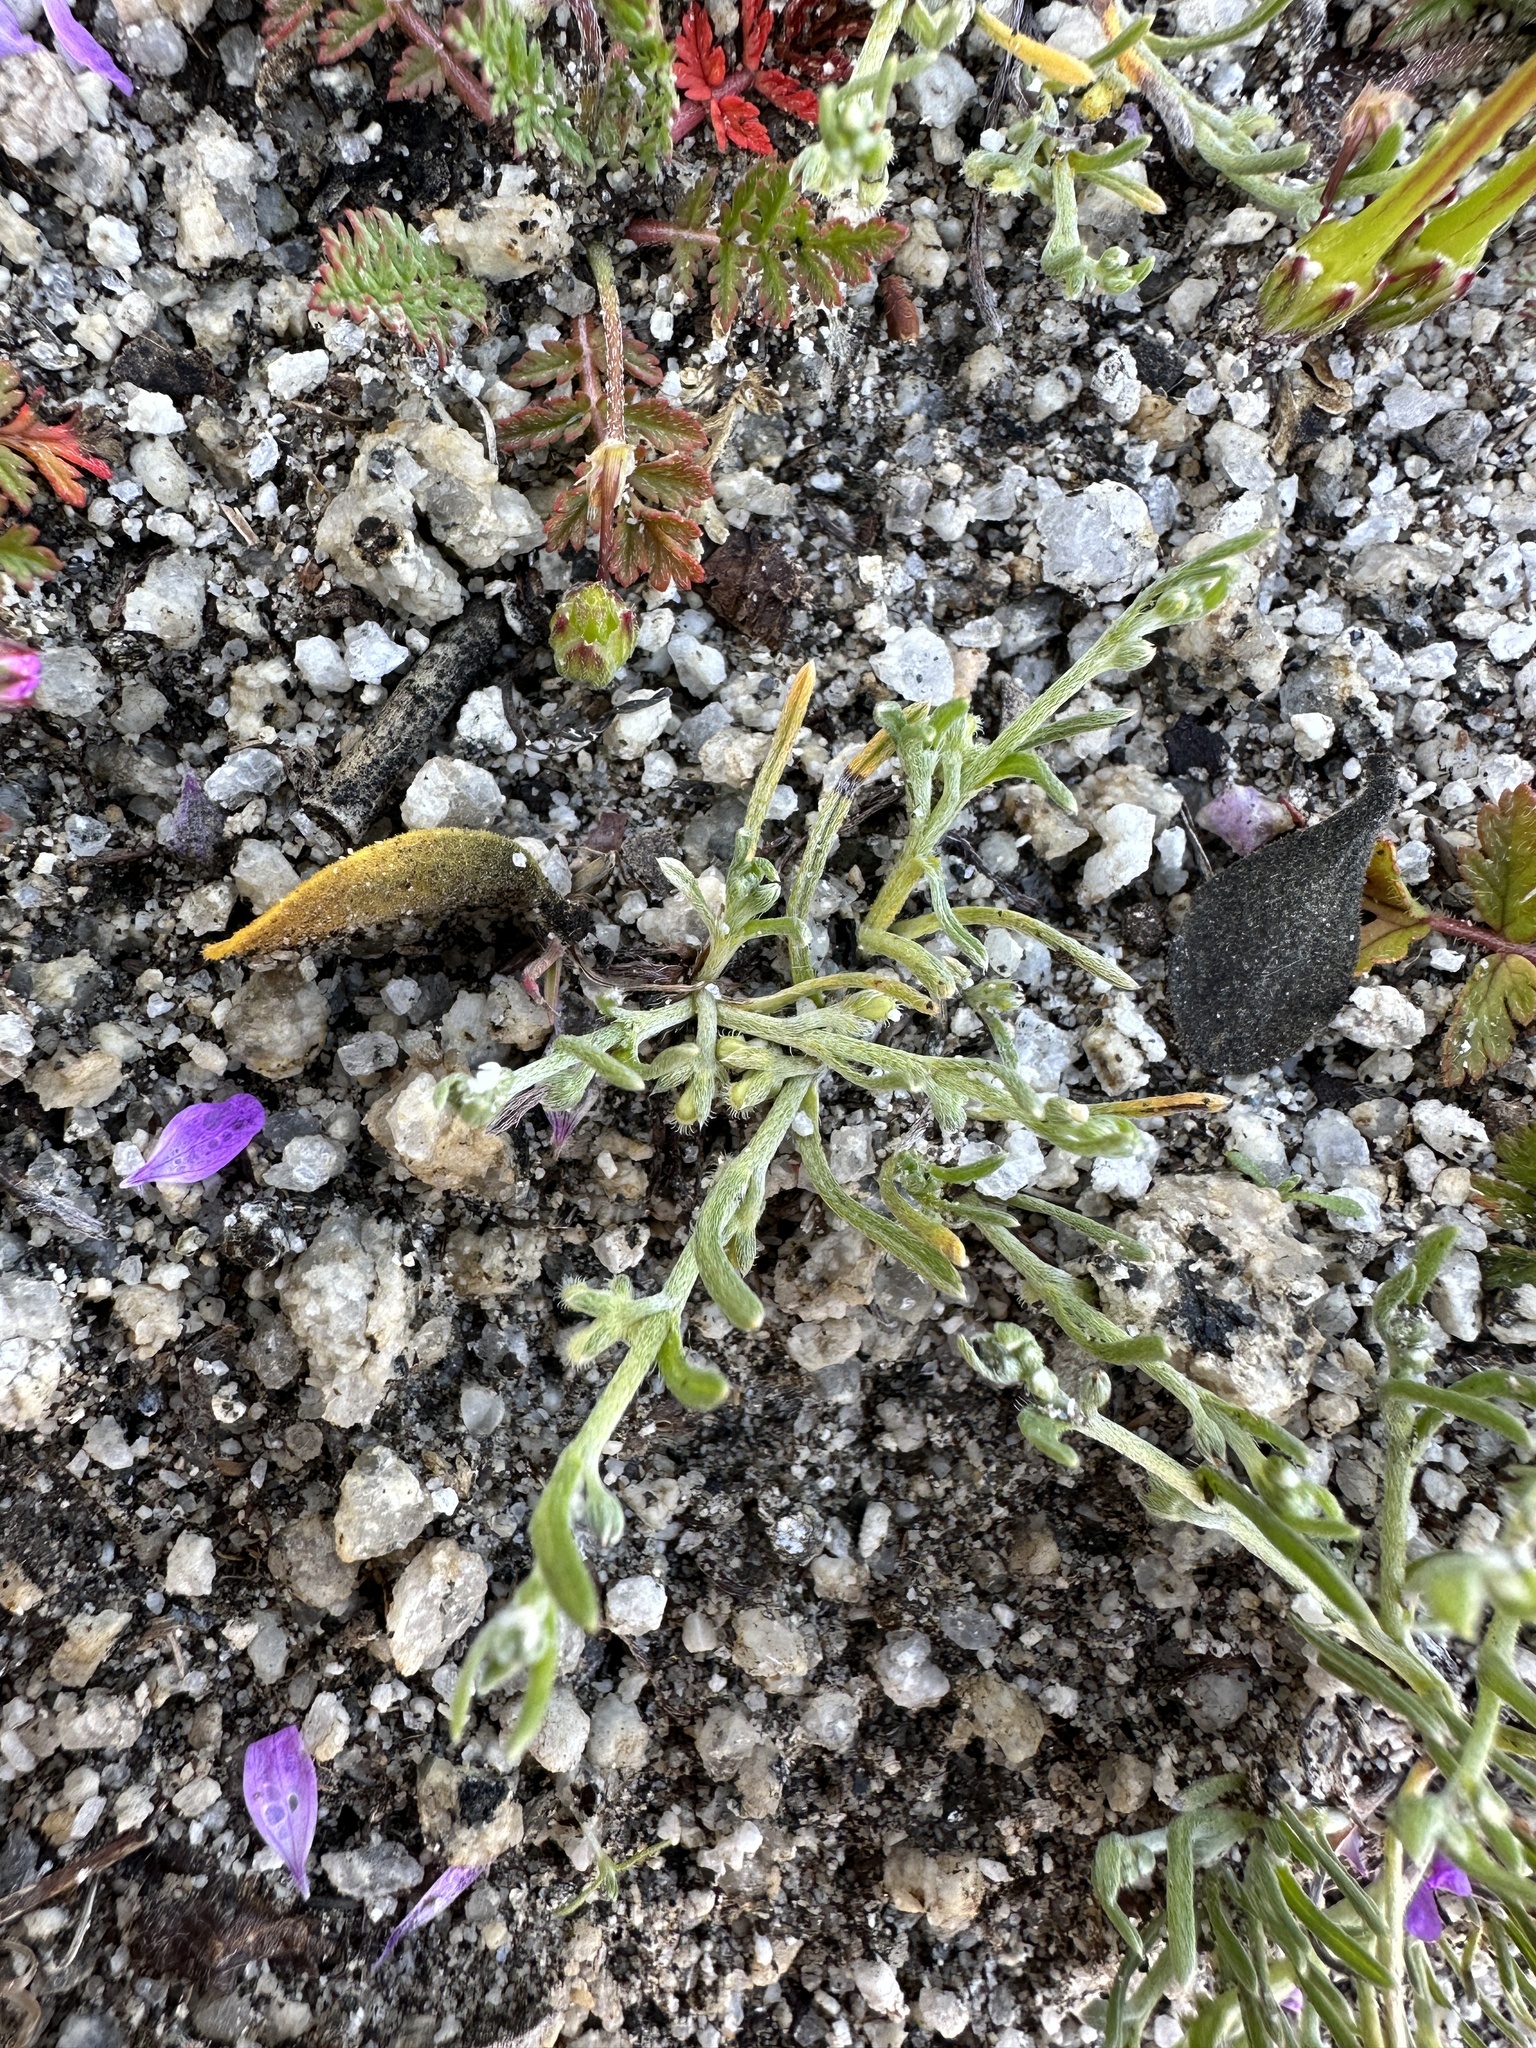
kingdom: Plantae
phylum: Tracheophyta
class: Magnoliopsida
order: Boraginales
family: Boraginaceae
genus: Pectocarya
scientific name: Pectocarya penicillata
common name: Short-leaved combseed
